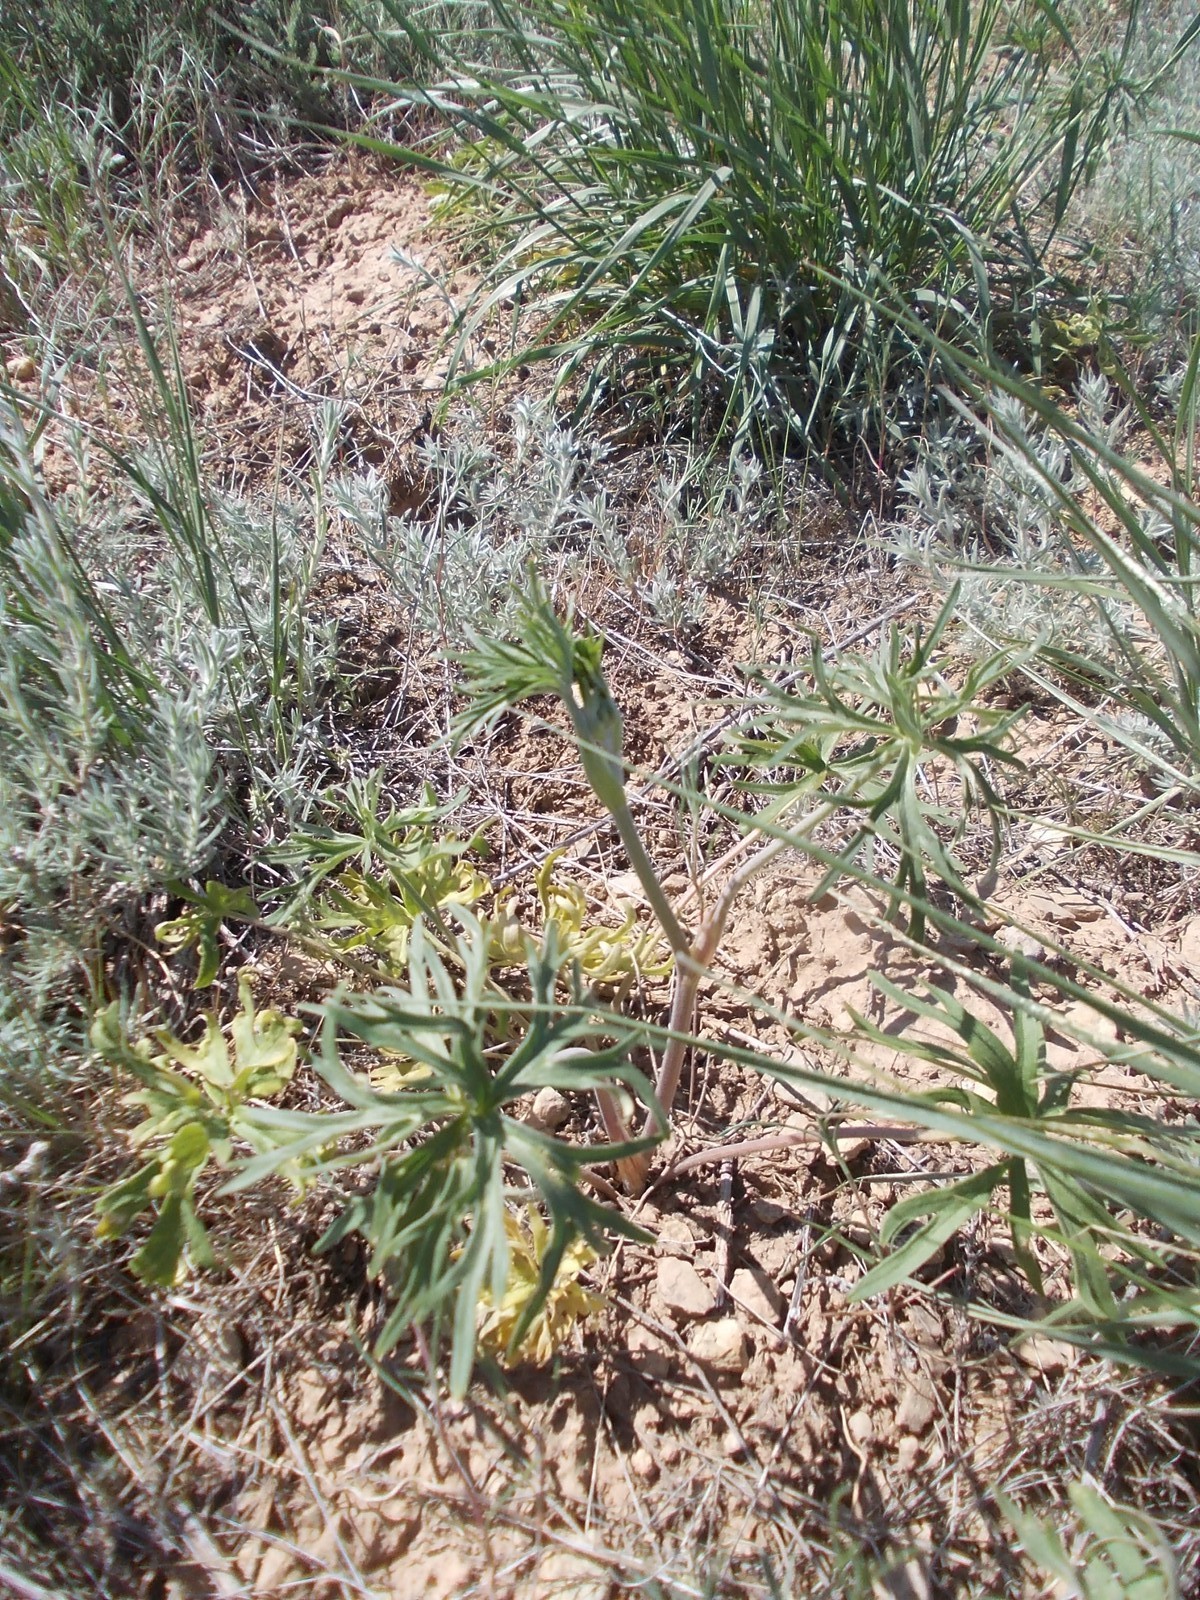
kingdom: Plantae
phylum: Tracheophyta
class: Magnoliopsida
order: Ranunculales
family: Ranunculaceae
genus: Delphinium
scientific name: Delphinium puniceum
